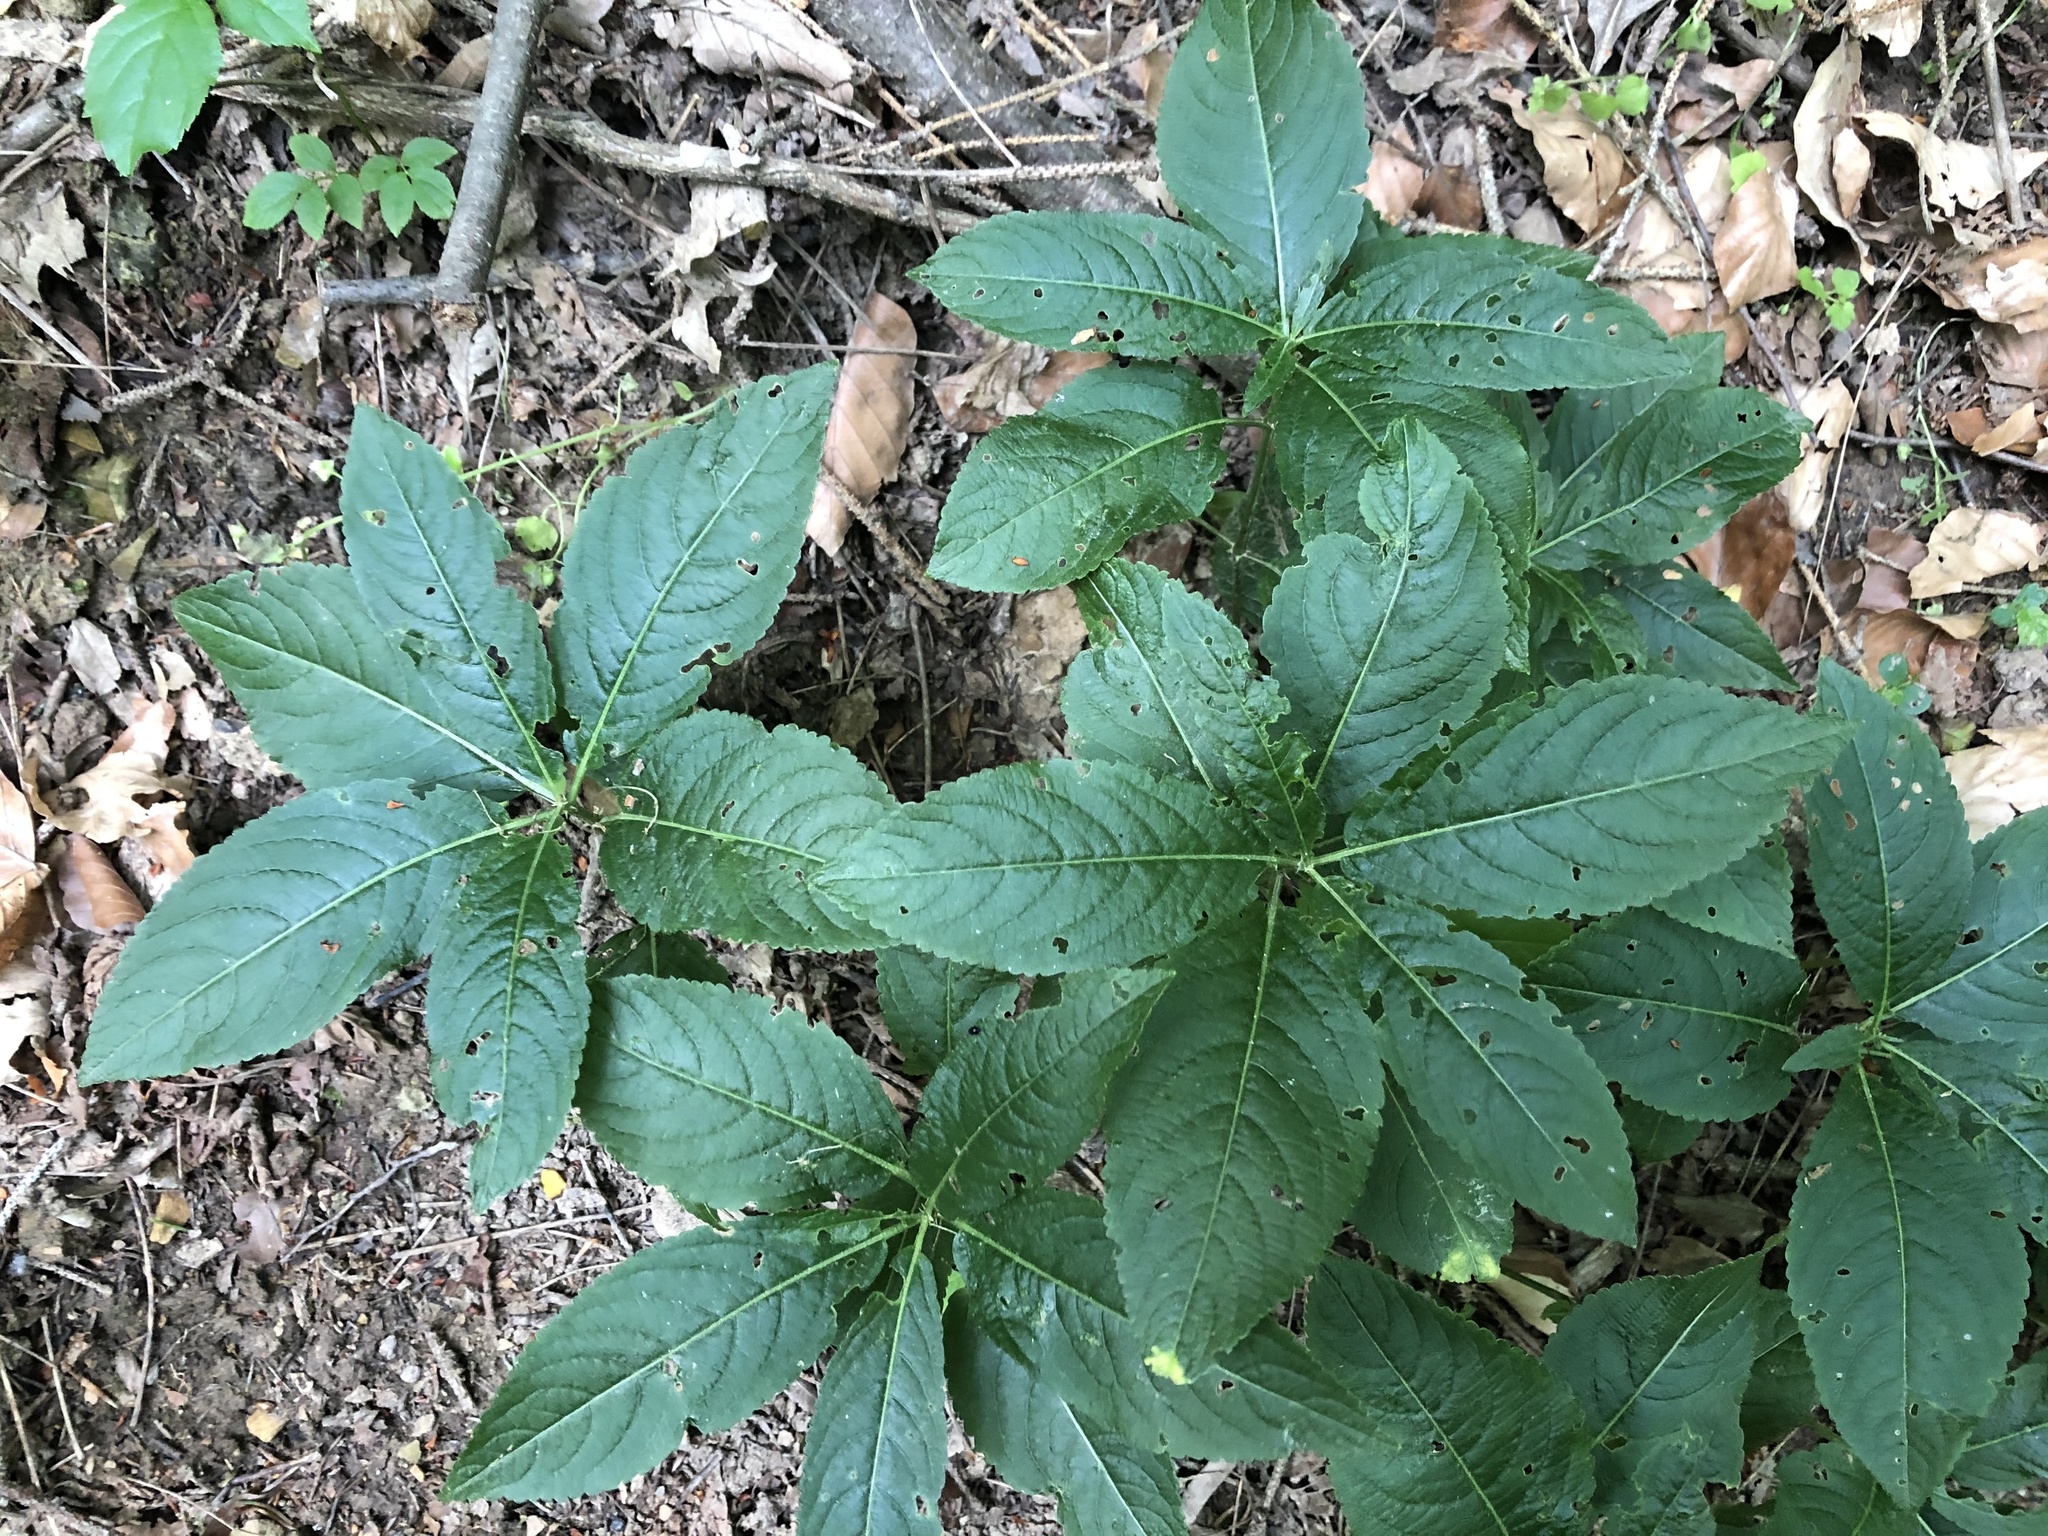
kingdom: Plantae
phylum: Tracheophyta
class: Magnoliopsida
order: Malpighiales
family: Euphorbiaceae
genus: Mercurialis
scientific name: Mercurialis perennis
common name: Dog mercury
